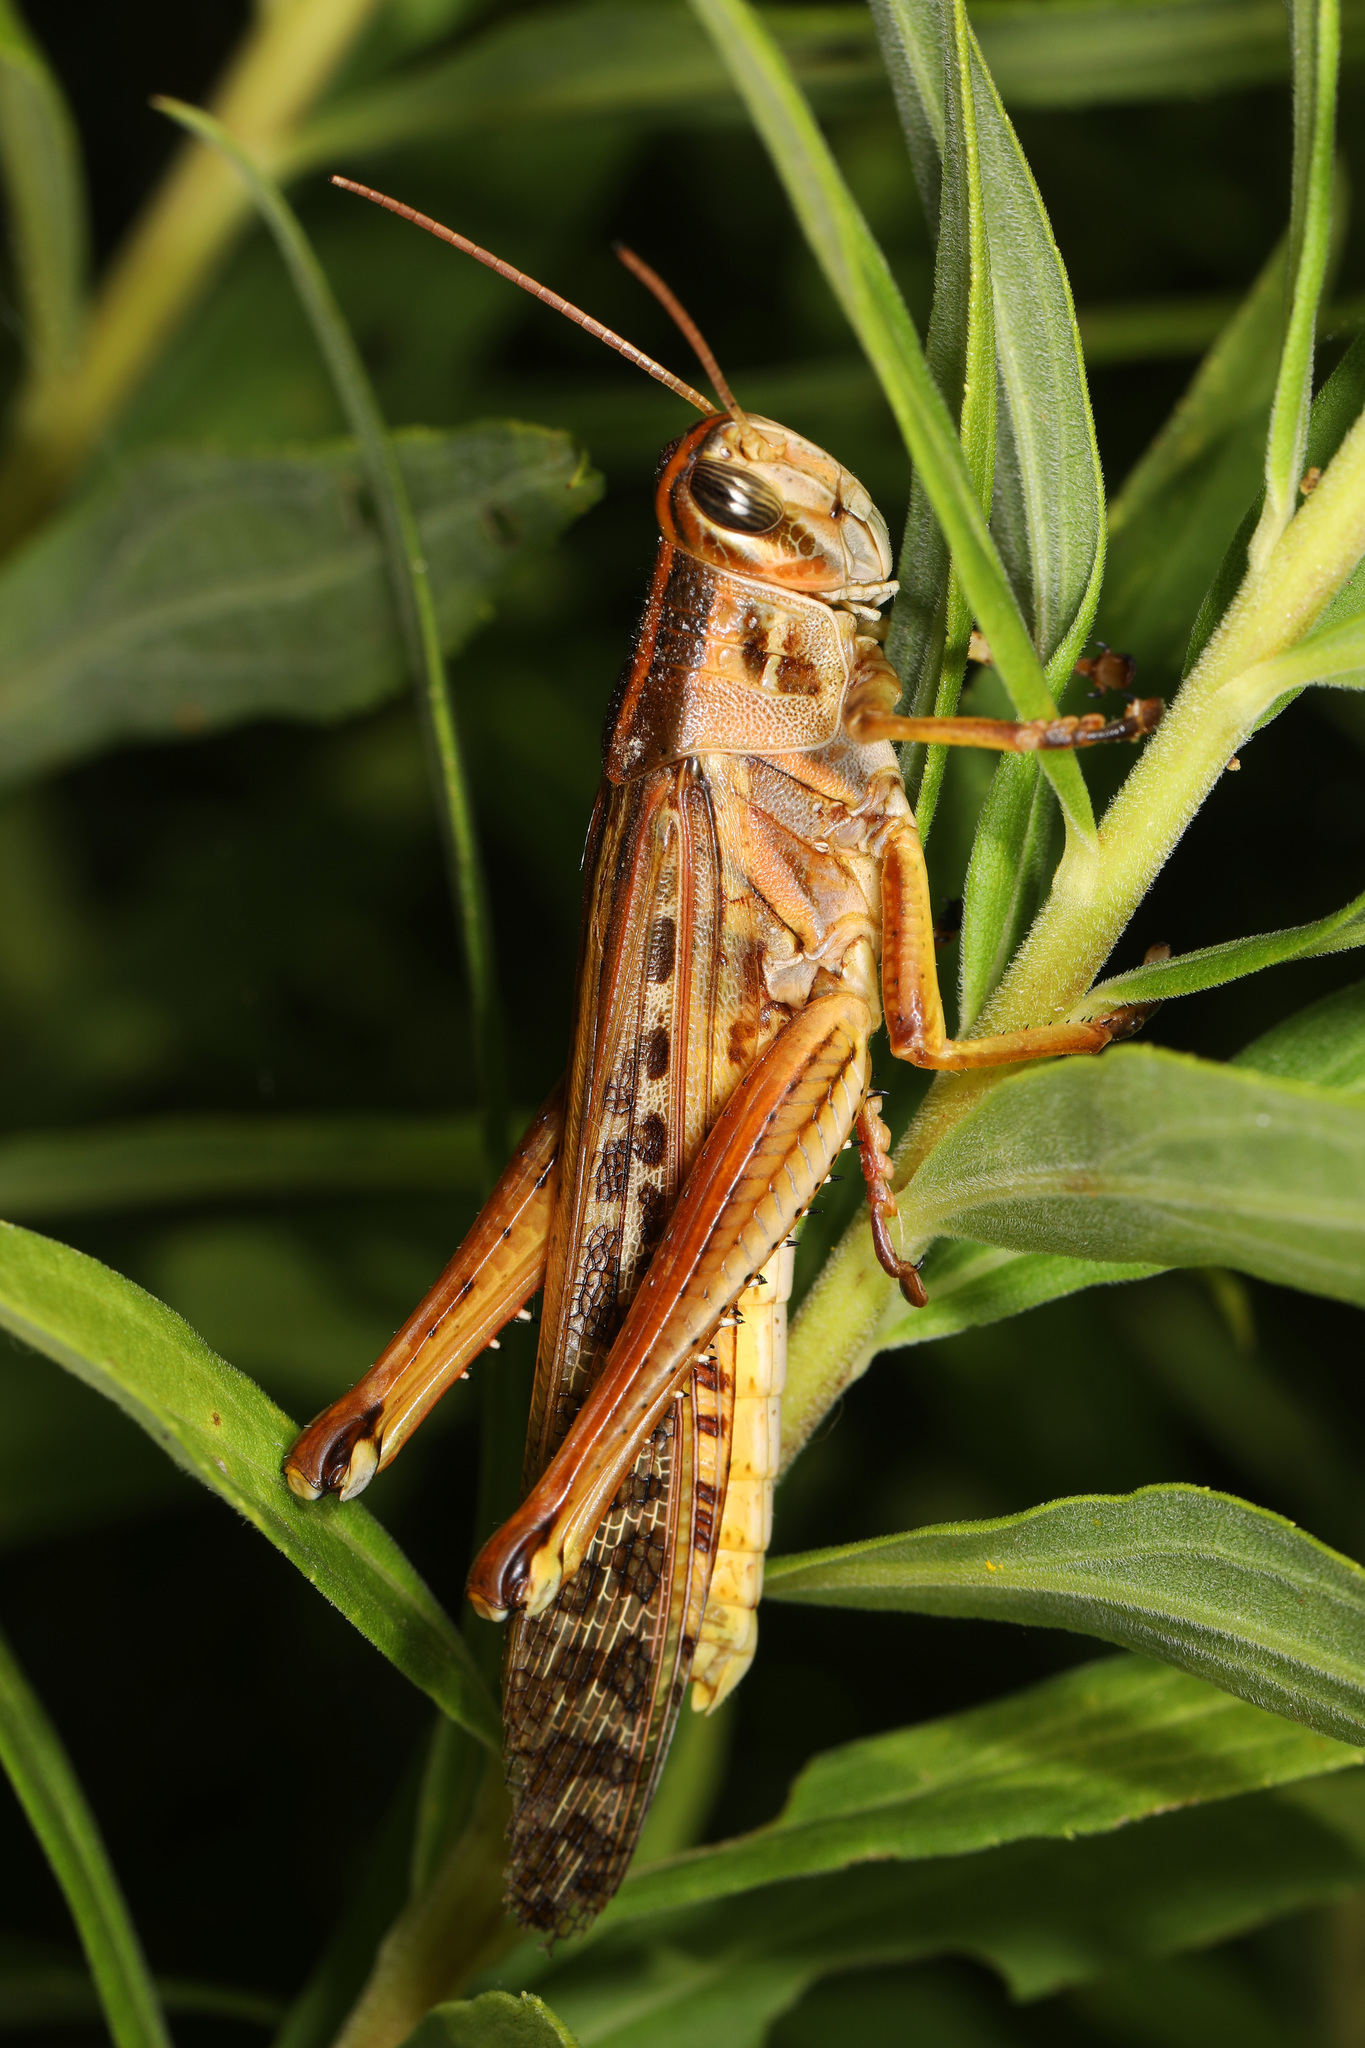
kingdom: Animalia
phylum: Arthropoda
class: Insecta
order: Orthoptera
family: Acrididae
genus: Schistocerca
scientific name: Schistocerca americana
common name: American bird locust
